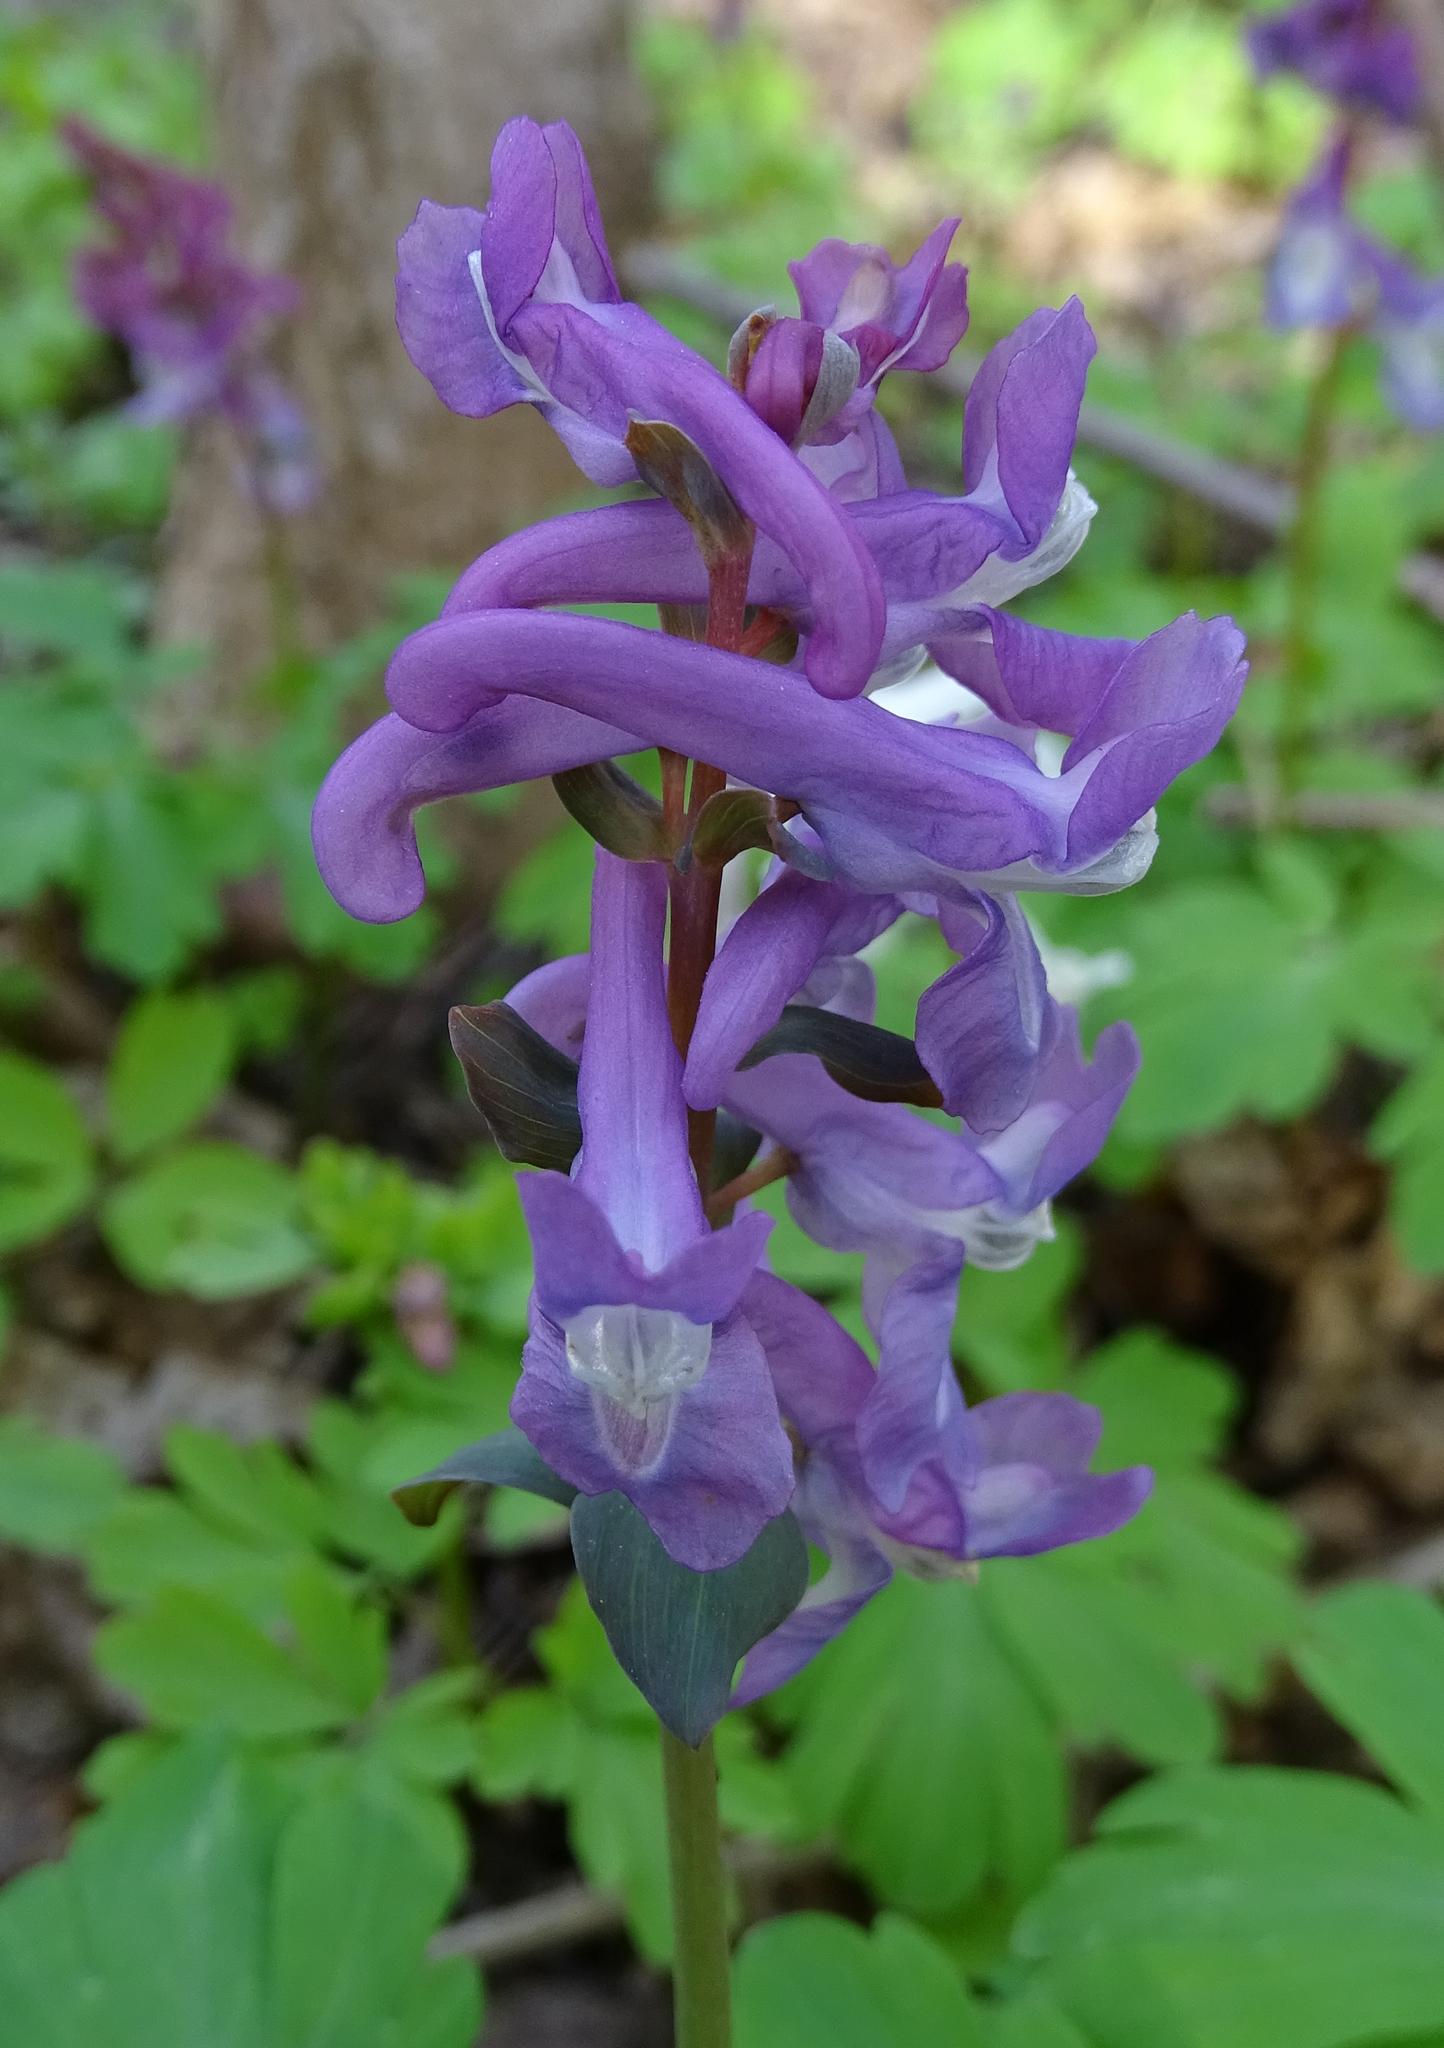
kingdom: Plantae
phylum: Tracheophyta
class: Magnoliopsida
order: Ranunculales
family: Papaveraceae
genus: Corydalis
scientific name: Corydalis cava
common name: Hollowroot
